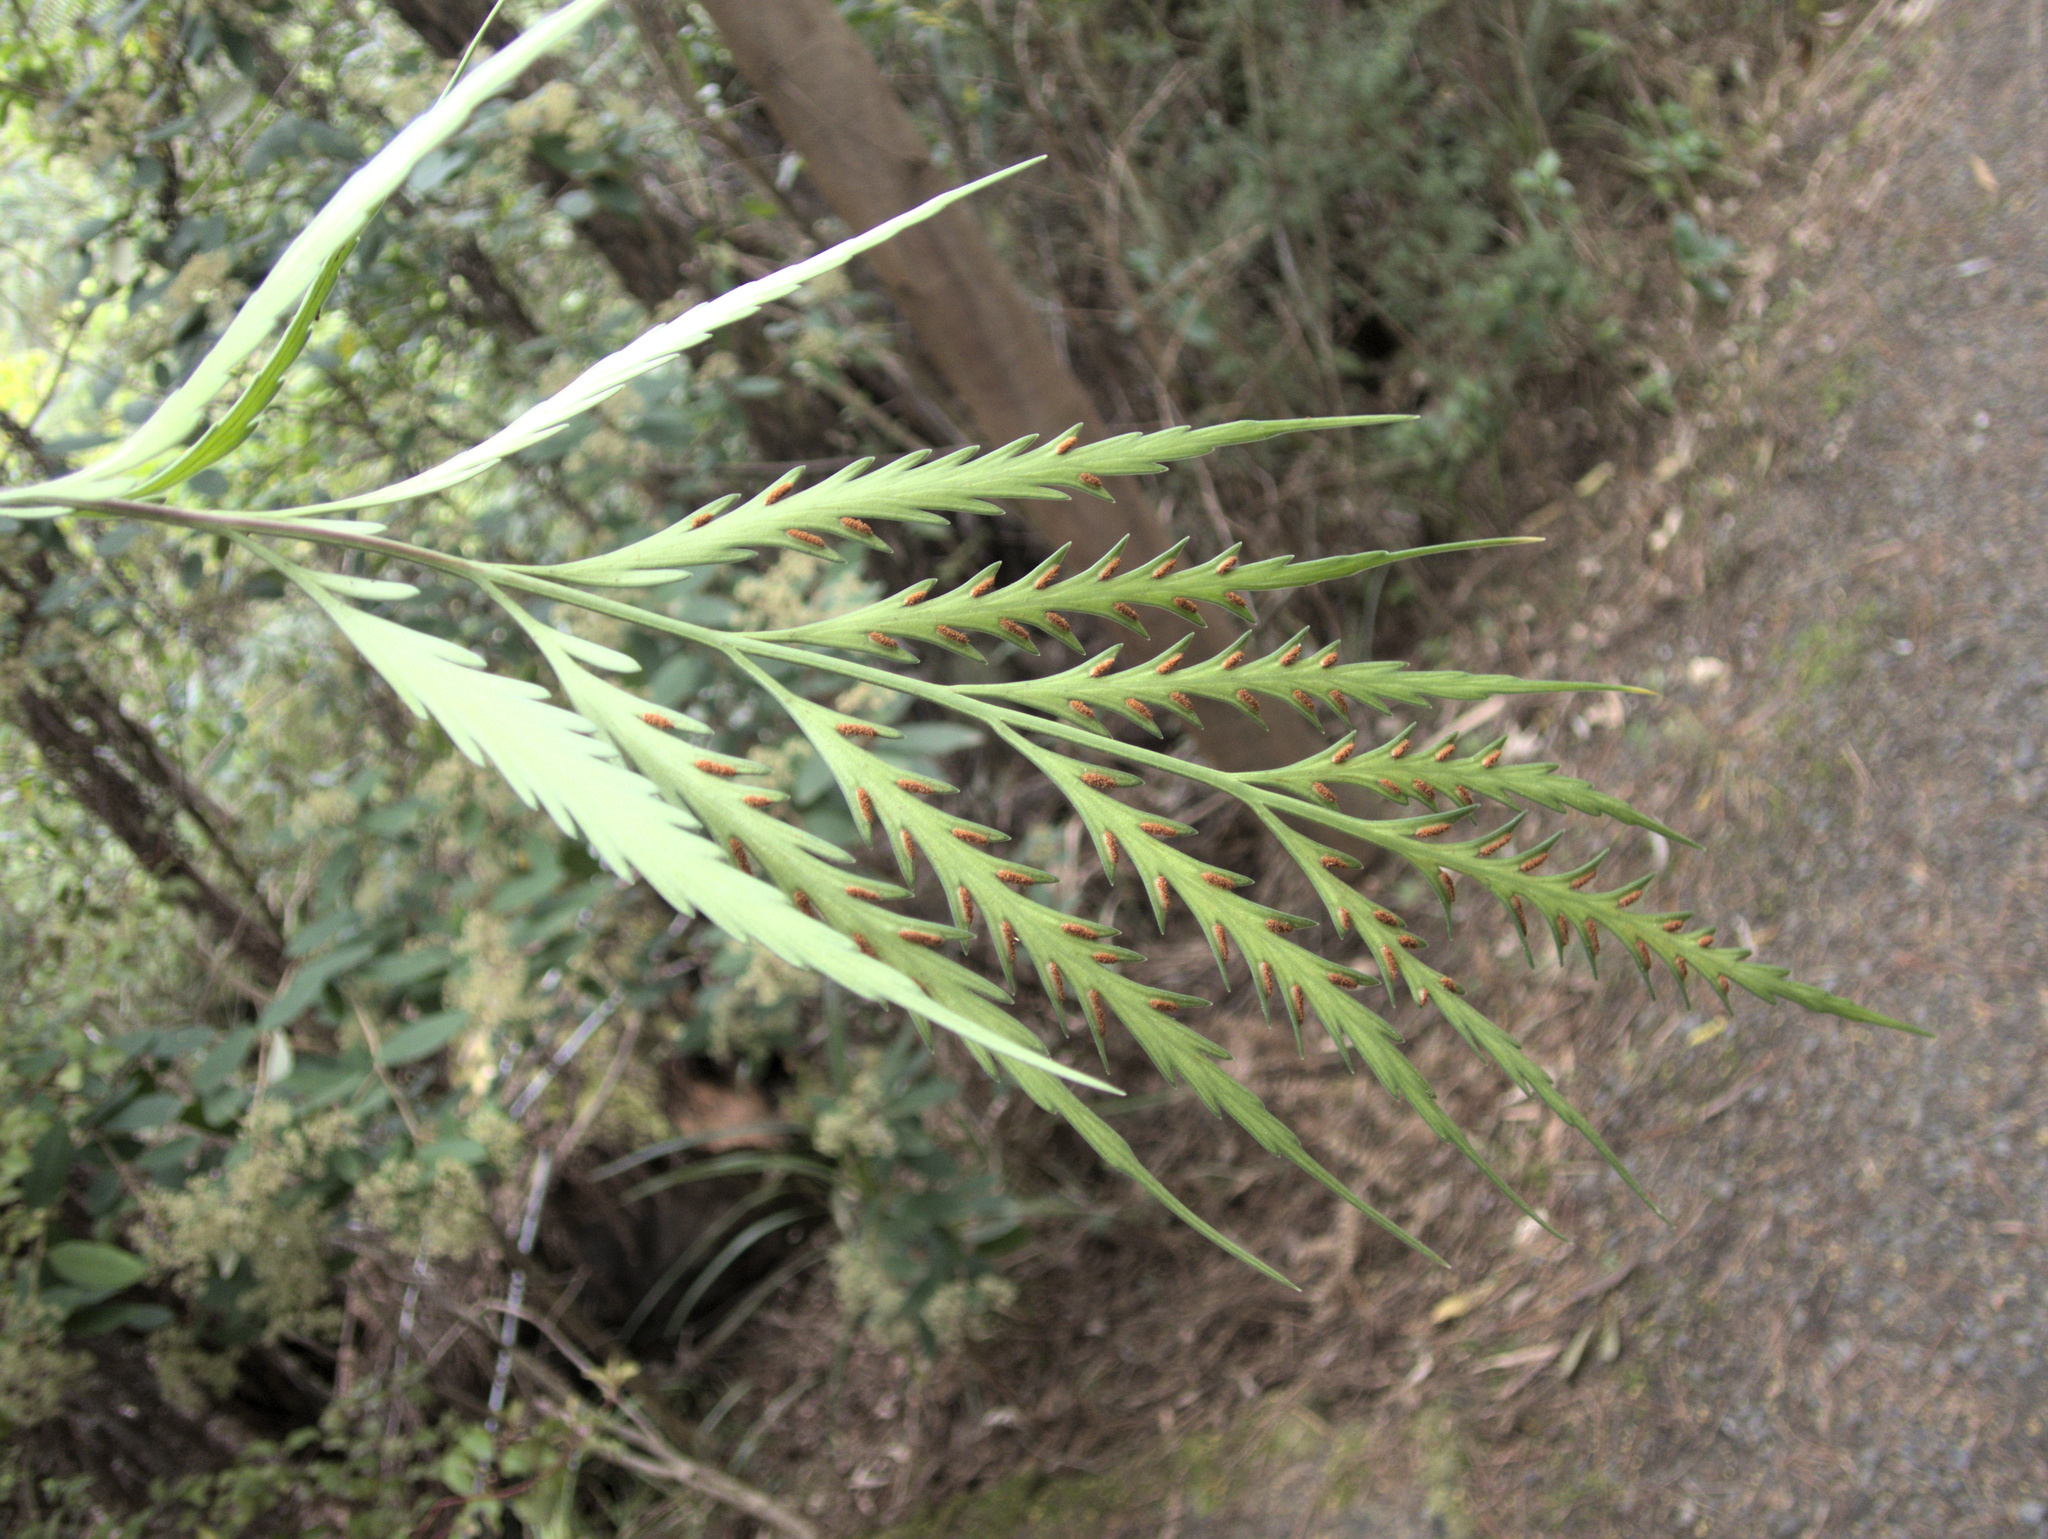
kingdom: Plantae
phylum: Tracheophyta
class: Polypodiopsida
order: Polypodiales
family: Aspleniaceae
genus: Asplenium
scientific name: Asplenium flaccidum
